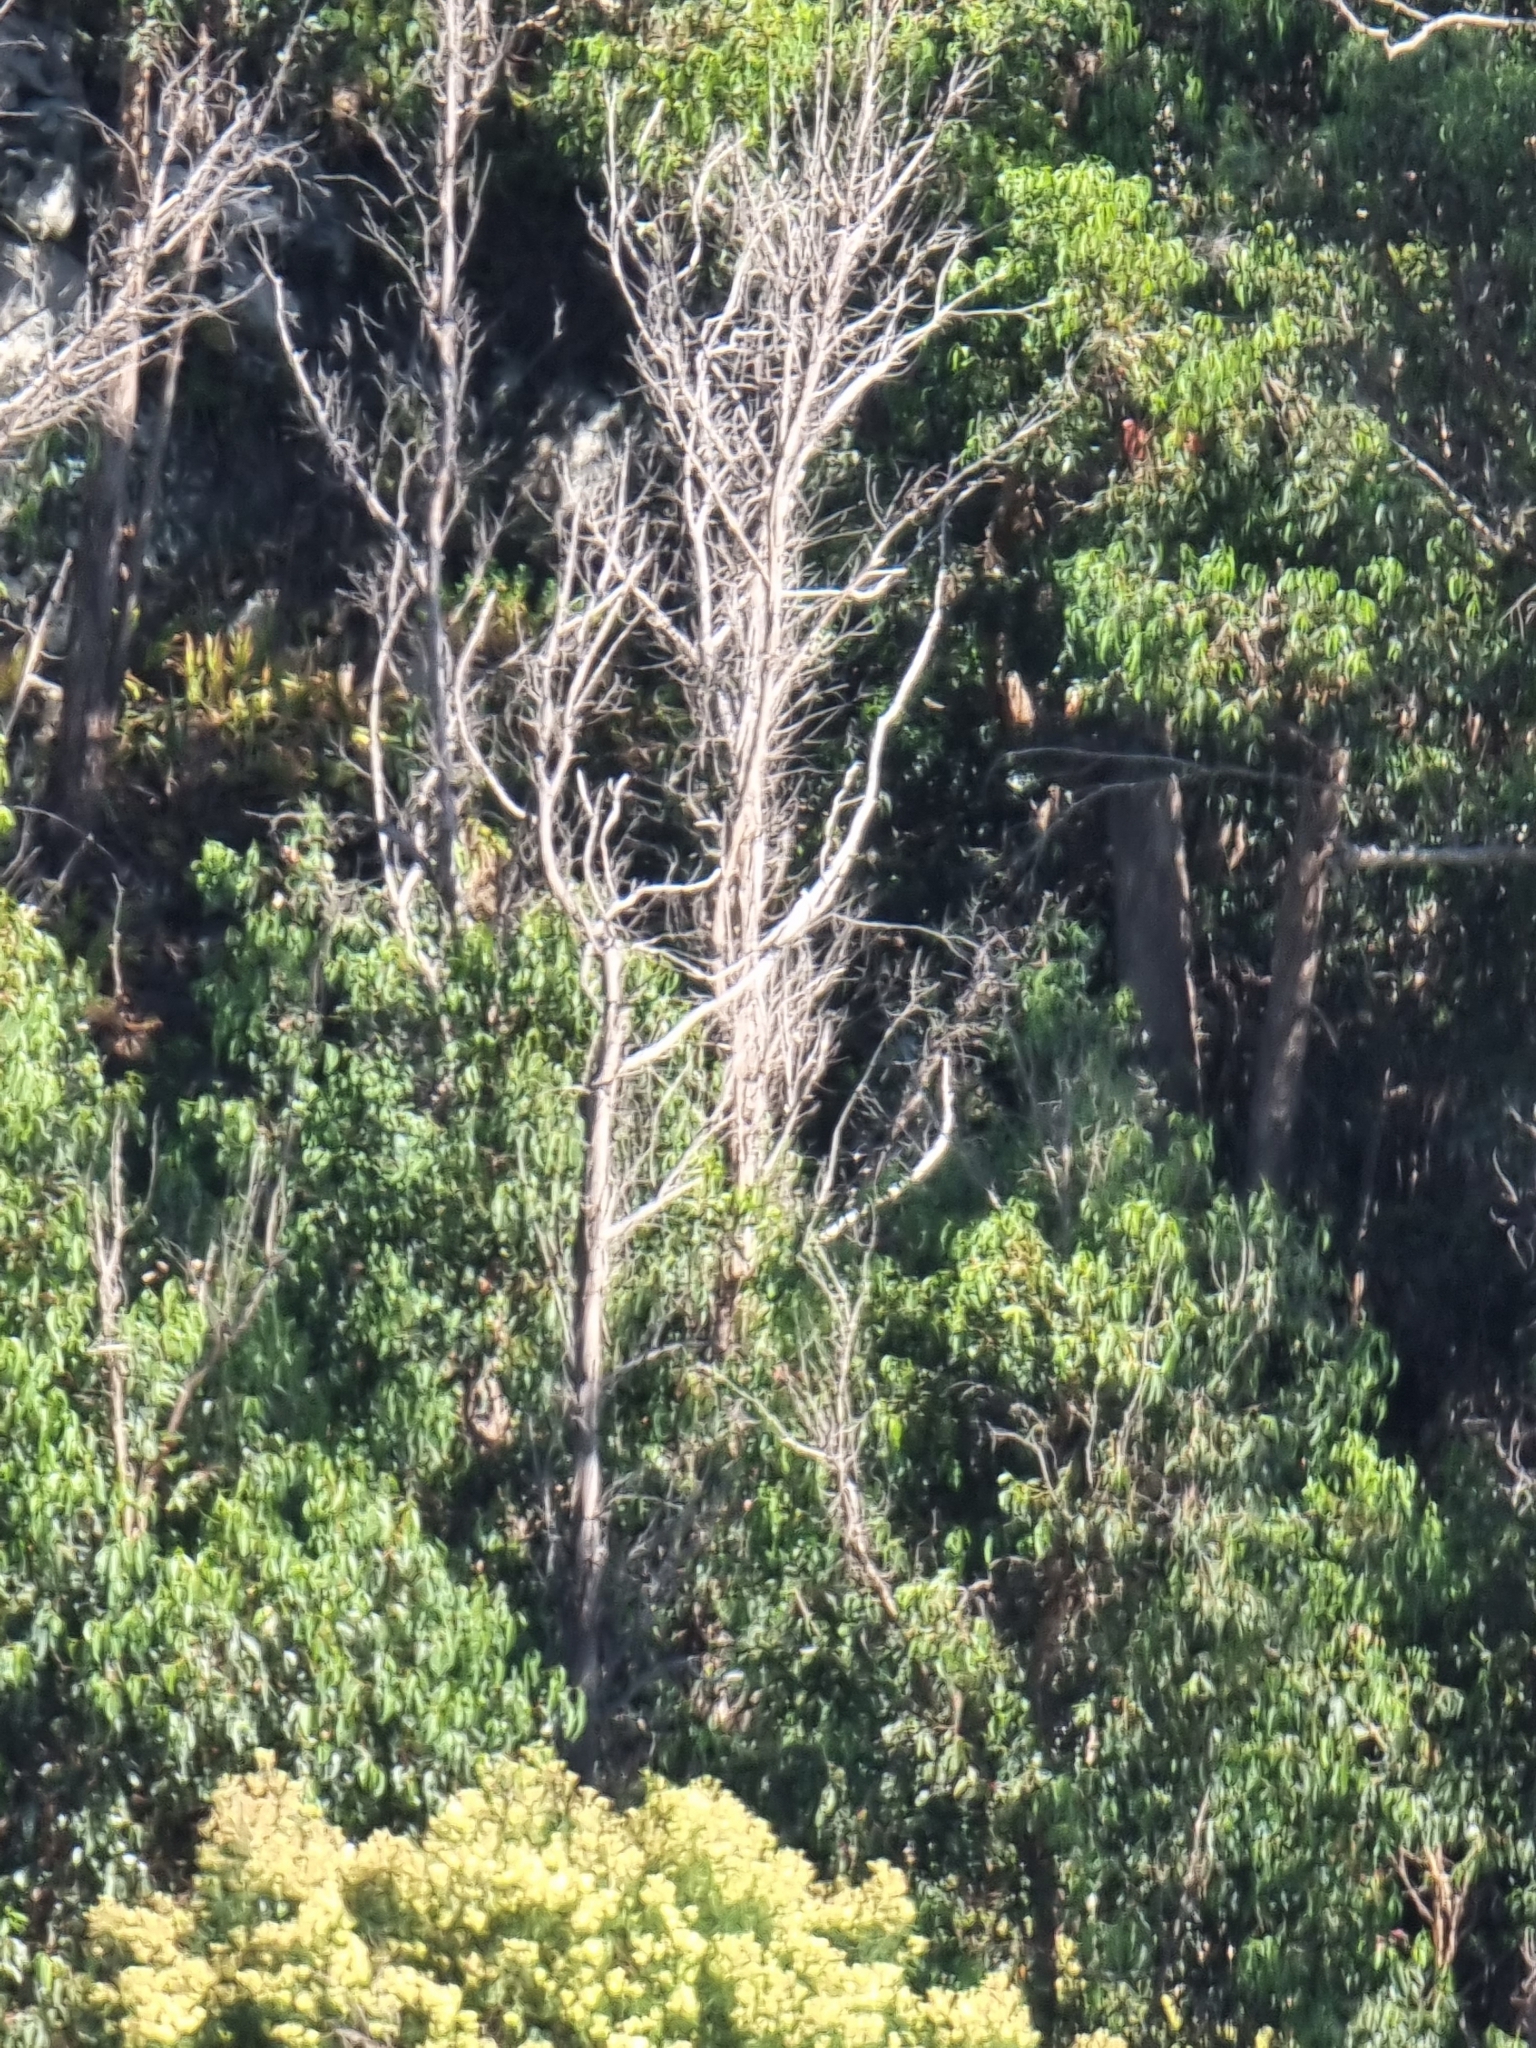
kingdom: Plantae
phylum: Tracheophyta
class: Magnoliopsida
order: Myrtales
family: Myrtaceae
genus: Eucalyptus
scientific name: Eucalyptus globulus
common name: Southern blue-gum
